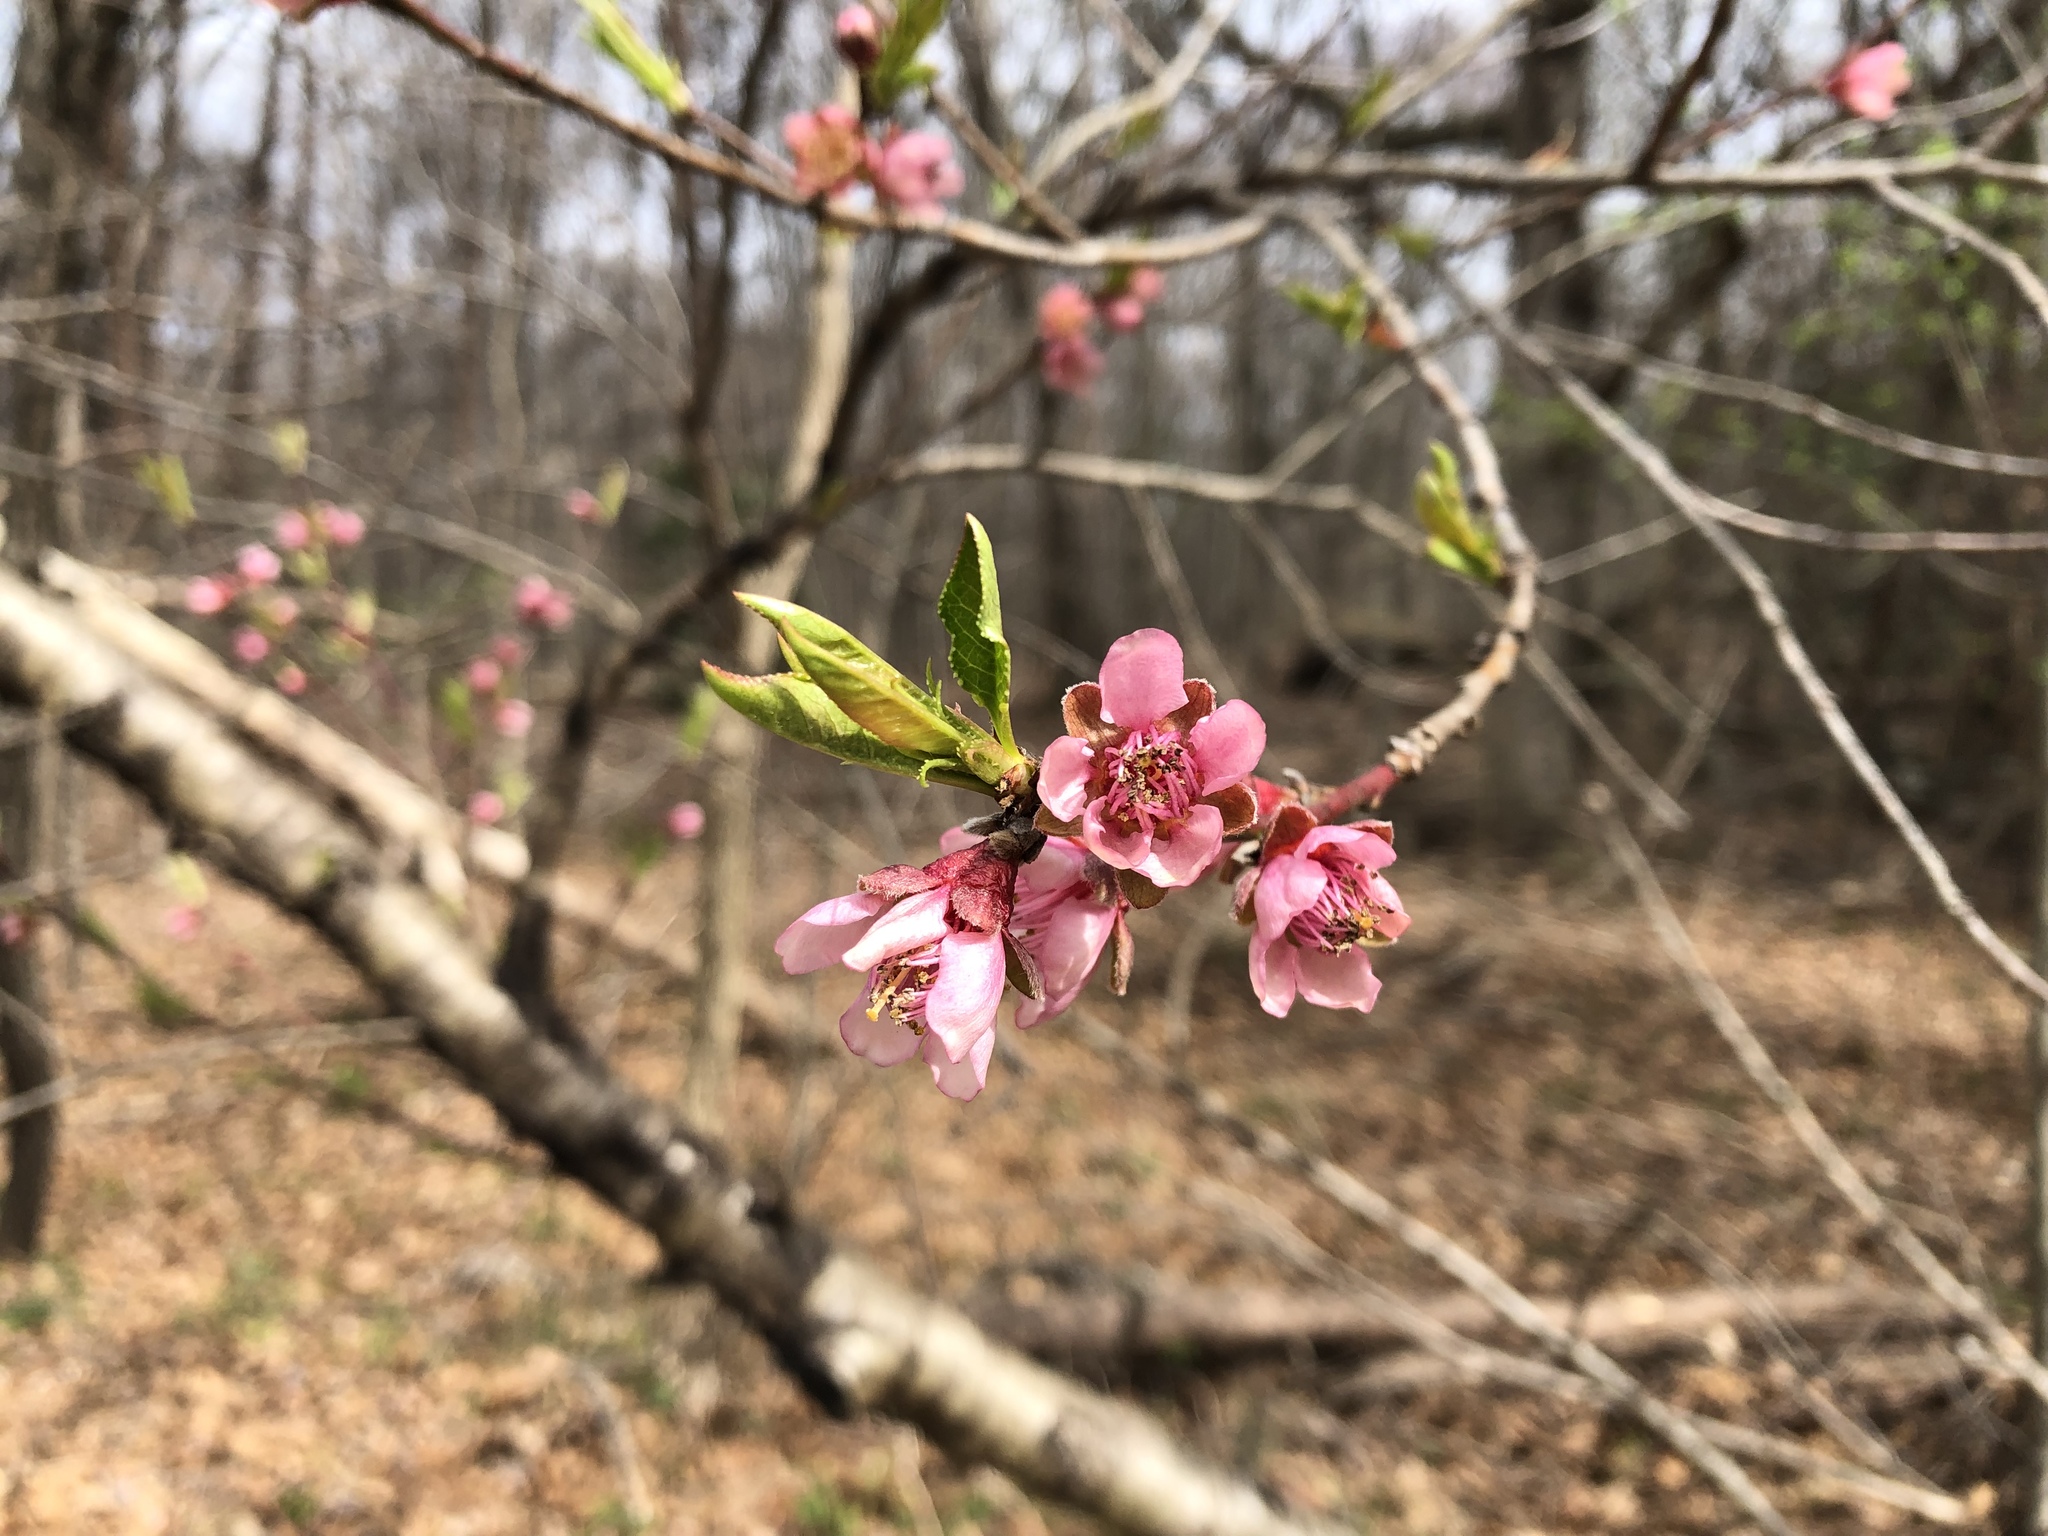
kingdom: Plantae
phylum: Tracheophyta
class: Magnoliopsida
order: Rosales
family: Rosaceae
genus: Prunus
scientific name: Prunus persica
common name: Peach
